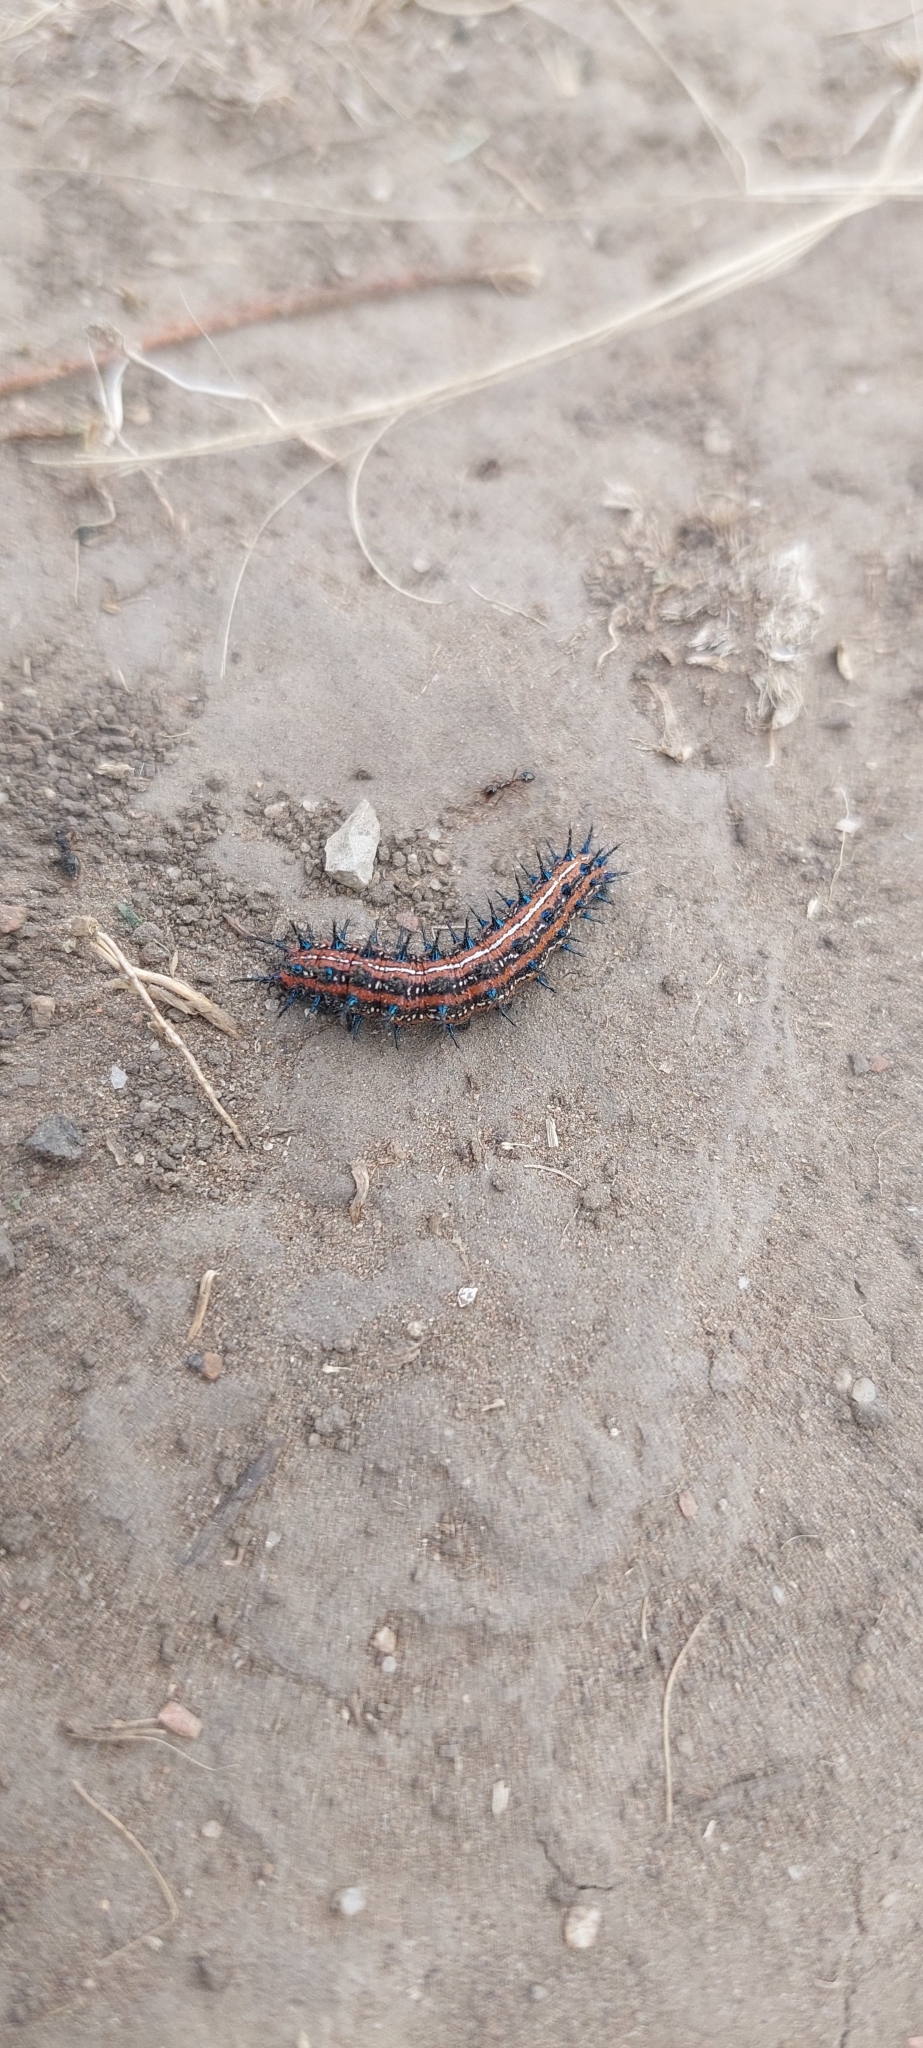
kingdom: Animalia
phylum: Arthropoda
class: Insecta
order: Lepidoptera
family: Nymphalidae
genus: Euptoieta
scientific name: Euptoieta hortensia
